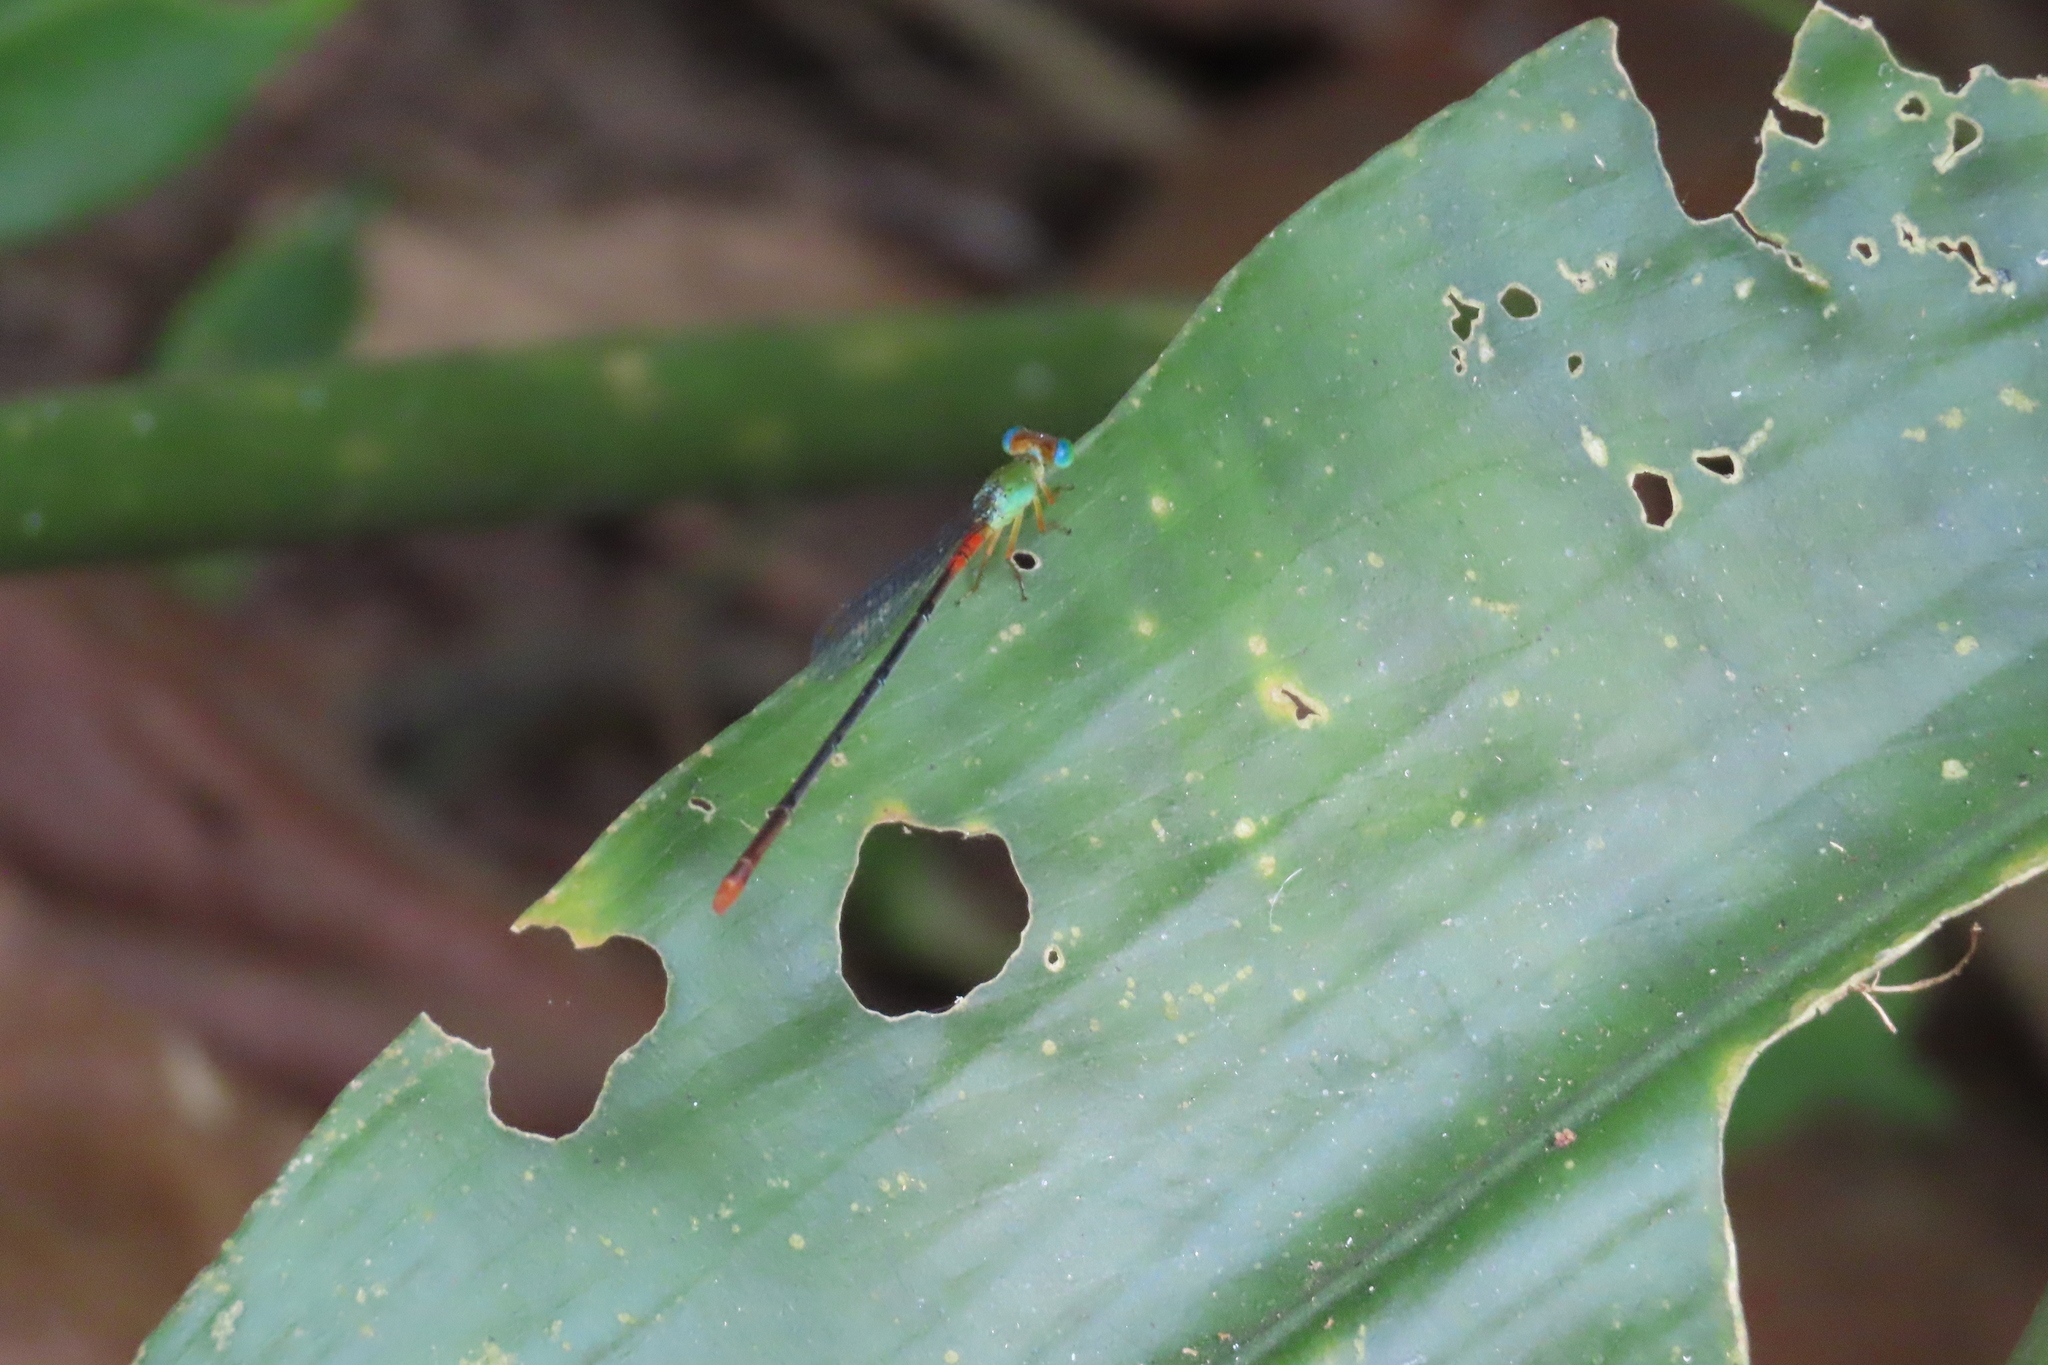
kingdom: Animalia
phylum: Arthropoda
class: Insecta
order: Odonata
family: Coenagrionidae
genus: Ceriagrion
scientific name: Ceriagrion cerinorubellum
